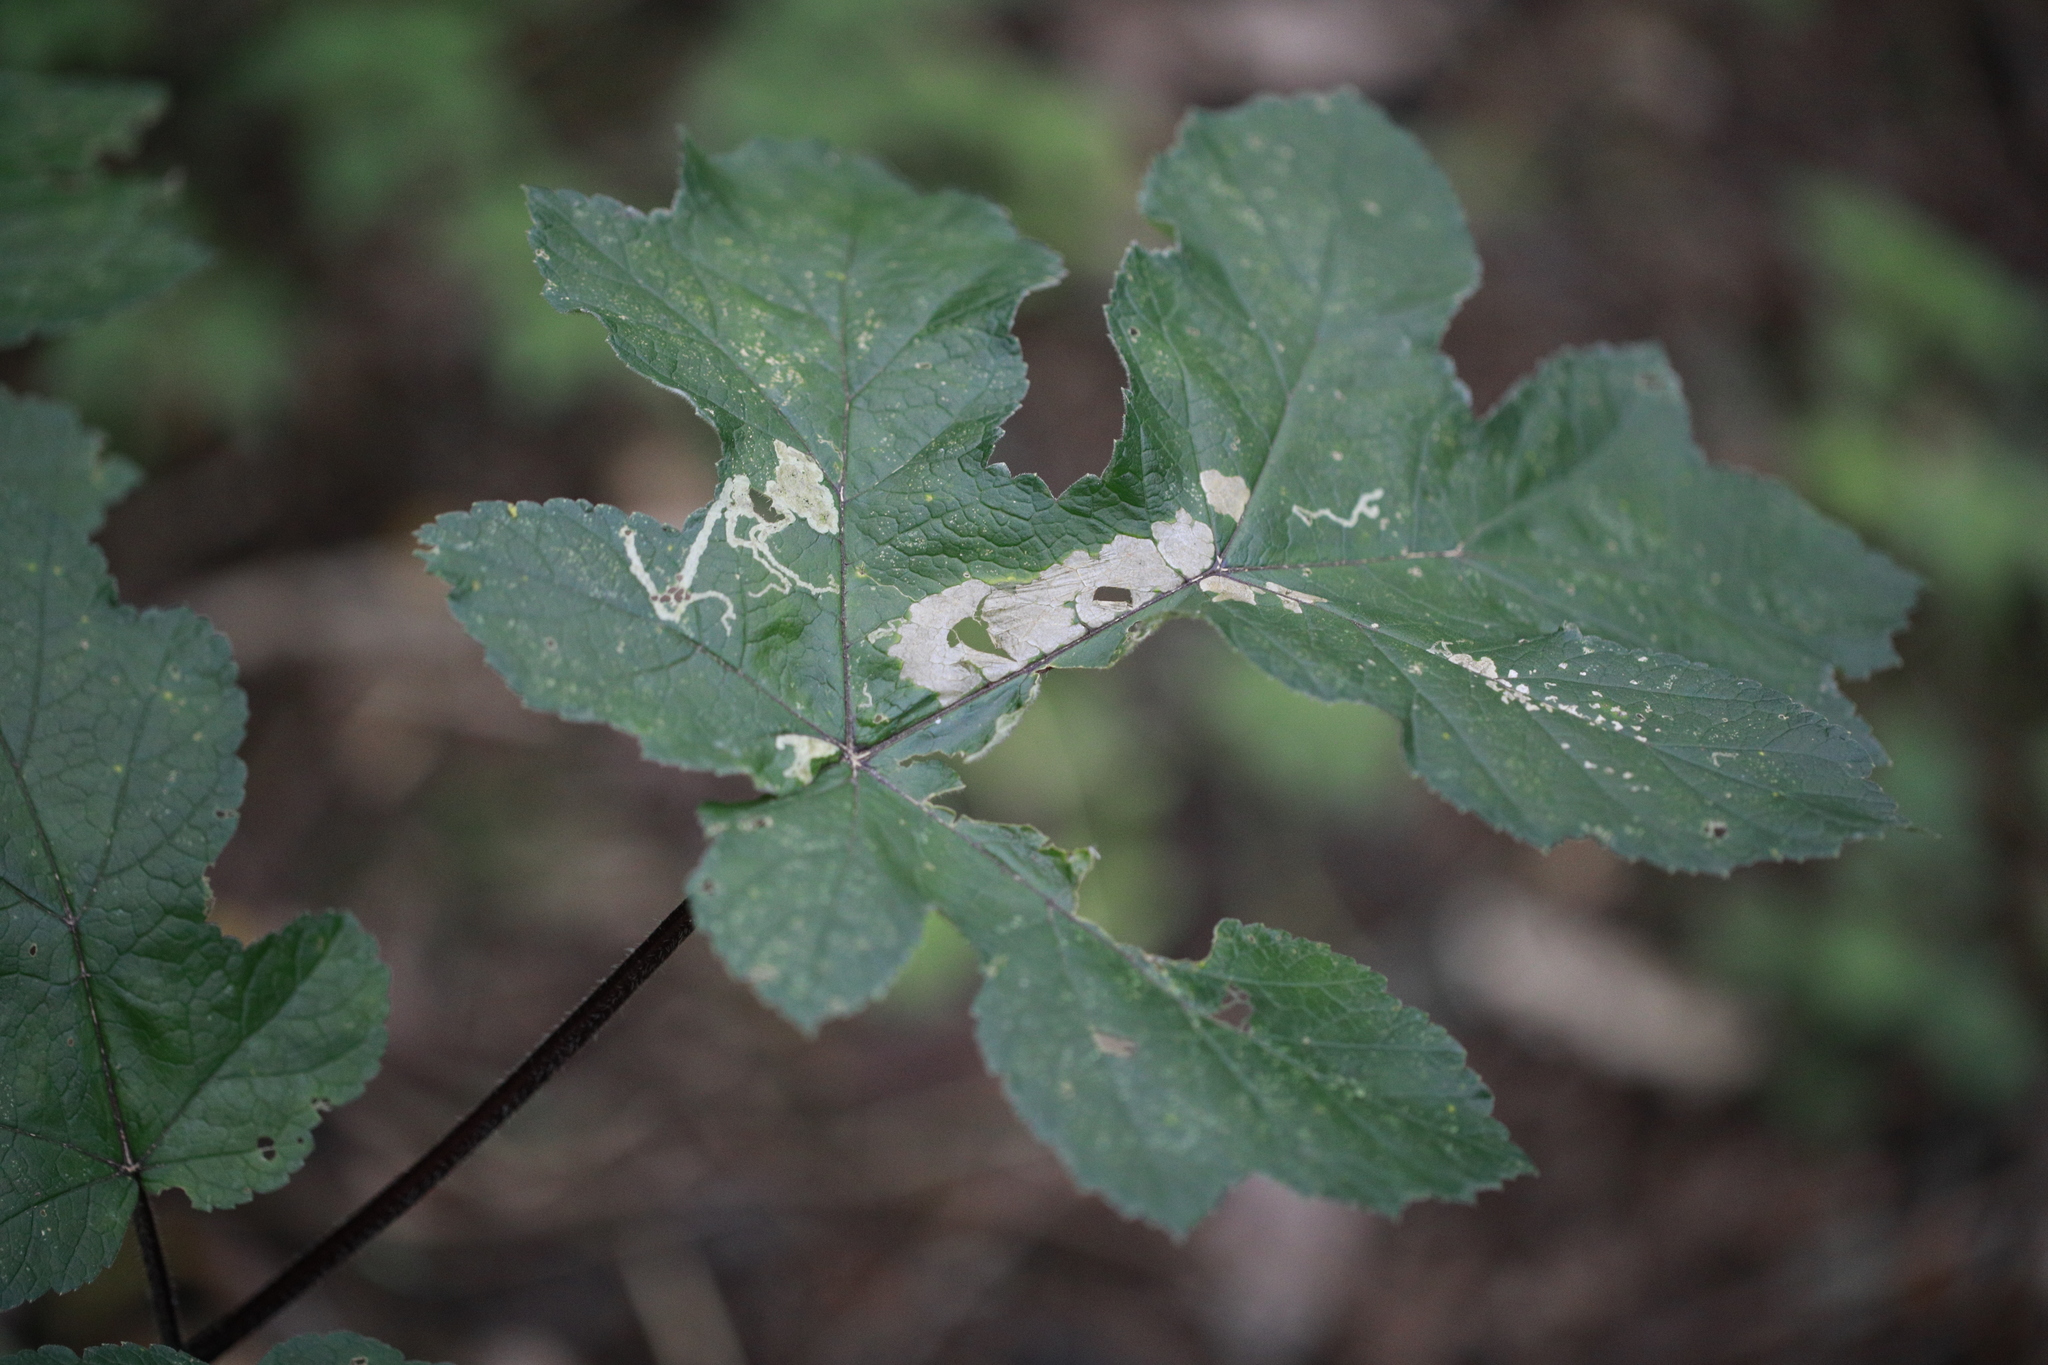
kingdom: Plantae
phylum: Tracheophyta
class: Magnoliopsida
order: Apiales
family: Apiaceae
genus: Heracleum
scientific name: Heracleum sphondylium
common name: Hogweed
